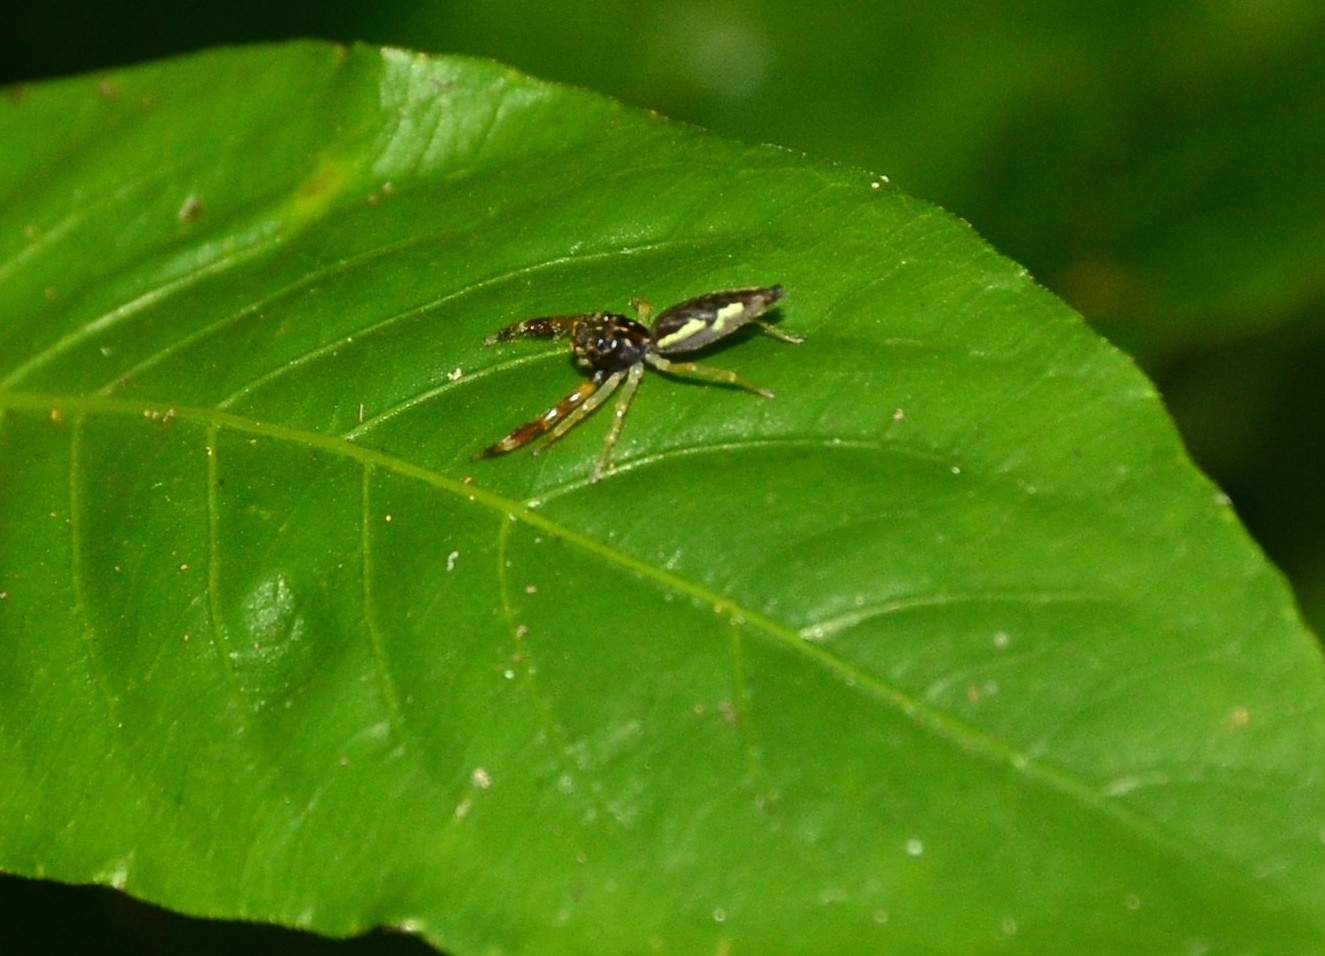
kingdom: Animalia
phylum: Arthropoda
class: Arachnida
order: Araneae
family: Salticidae
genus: Indopadilla
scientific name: Indopadilla insularis
